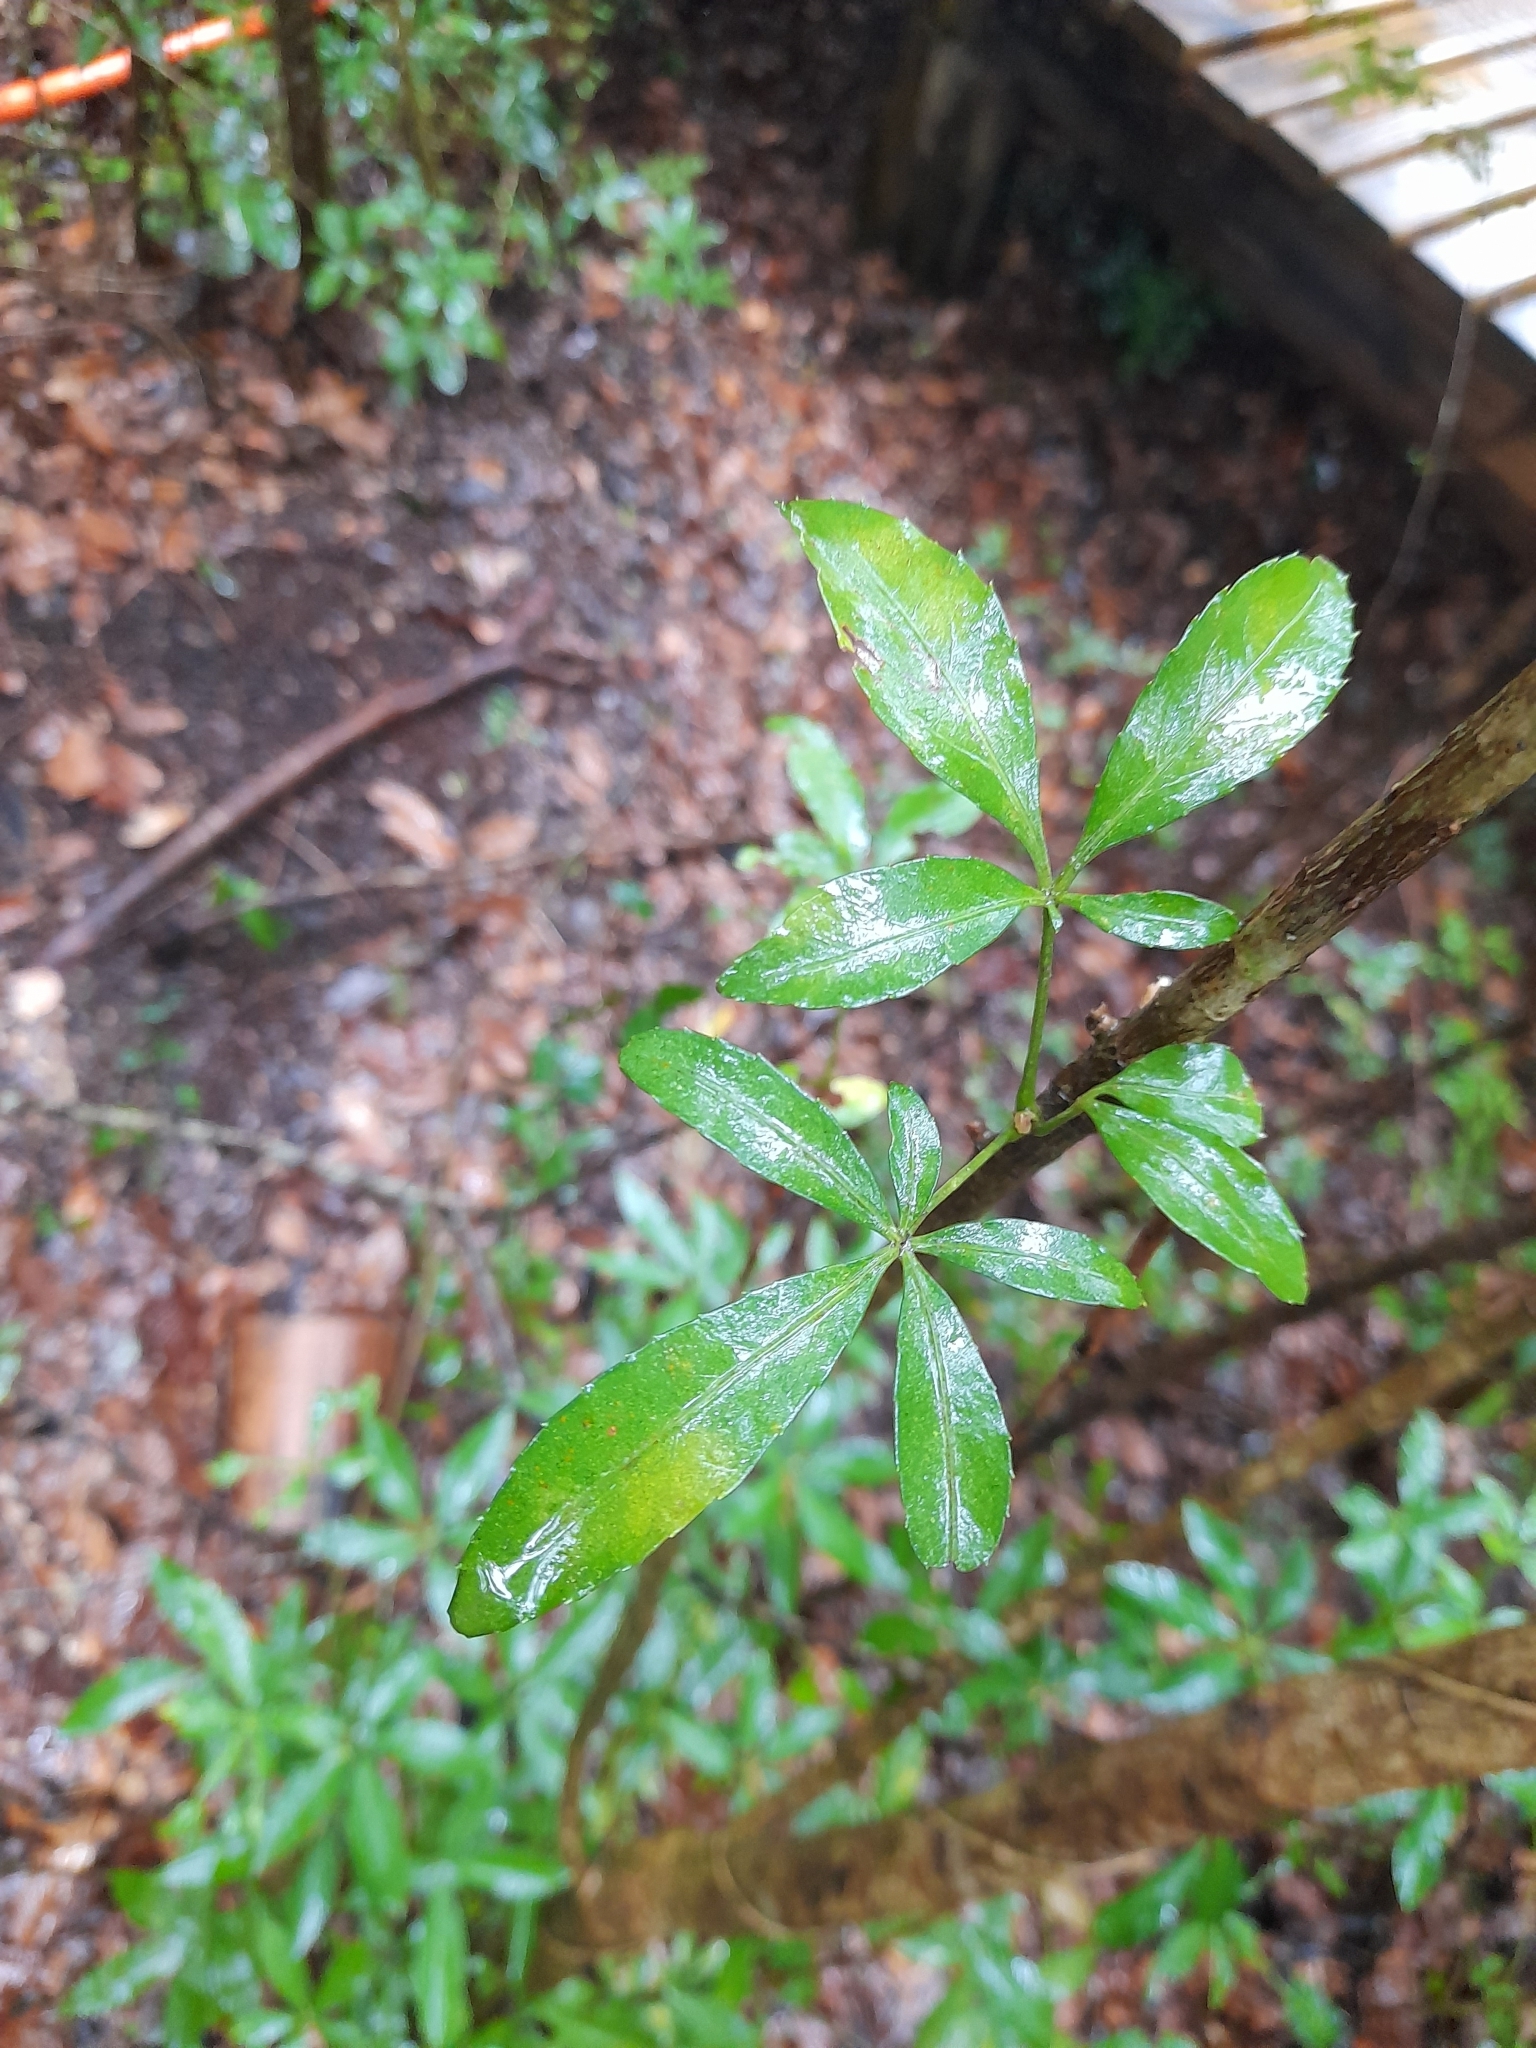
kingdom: Plantae
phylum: Tracheophyta
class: Magnoliopsida
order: Apiales
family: Araliaceae
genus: Raukaua
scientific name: Raukaua laetevirens
